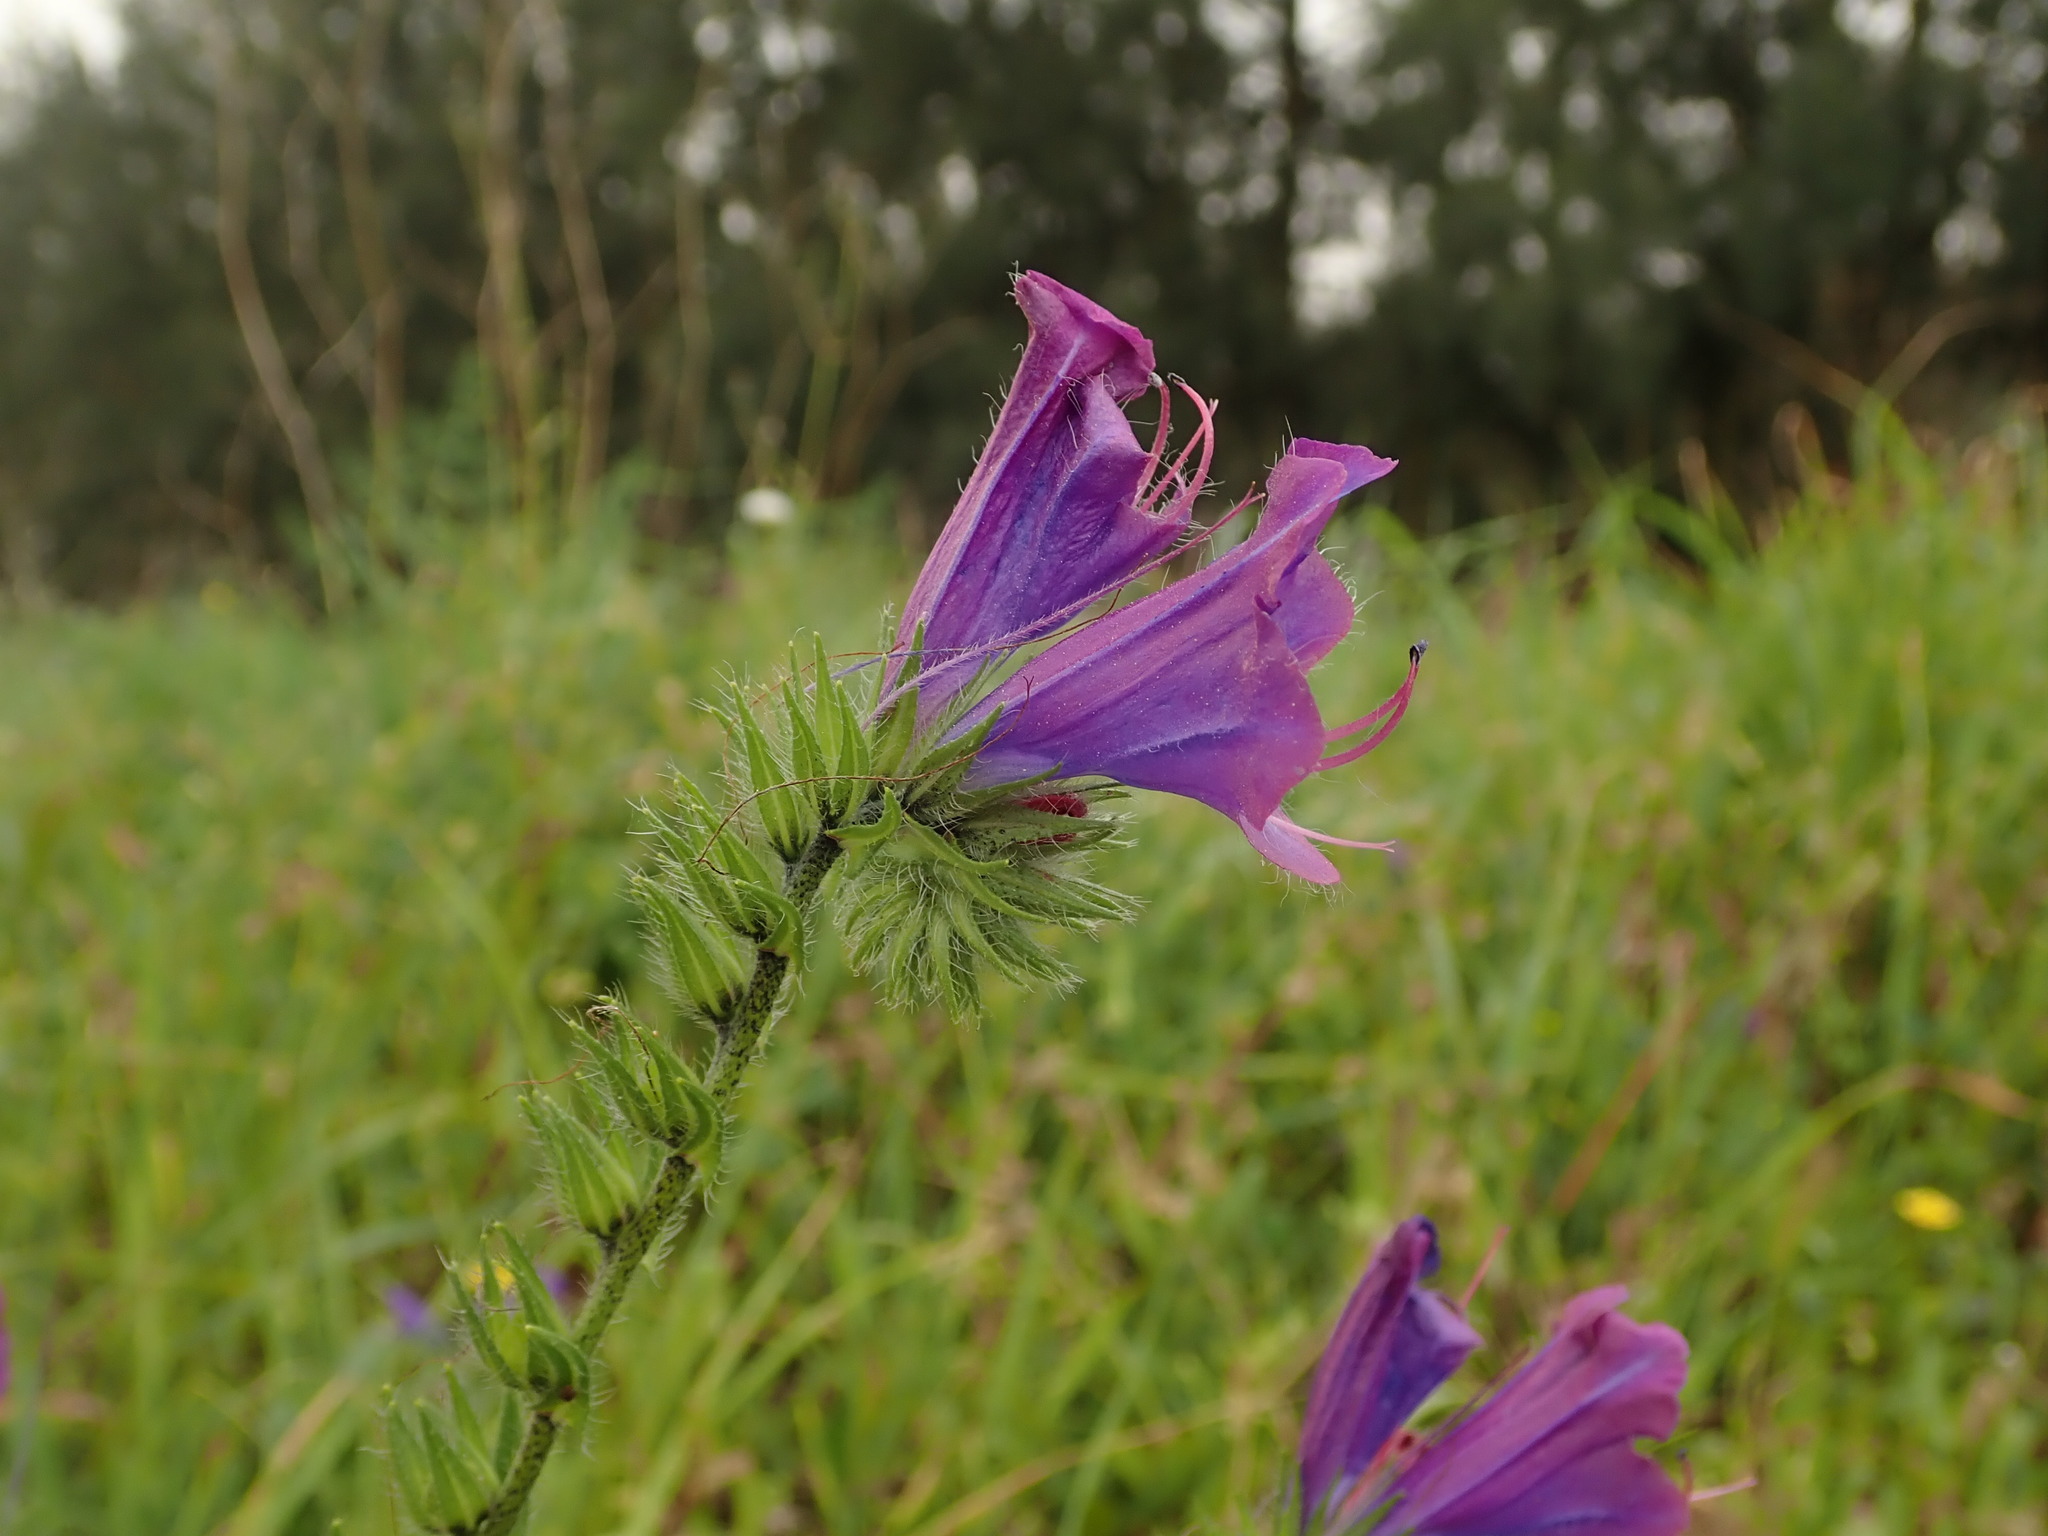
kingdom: Plantae
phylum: Tracheophyta
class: Magnoliopsida
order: Boraginales
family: Boraginaceae
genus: Echium
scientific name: Echium plantagineum
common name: Purple viper's-bugloss
